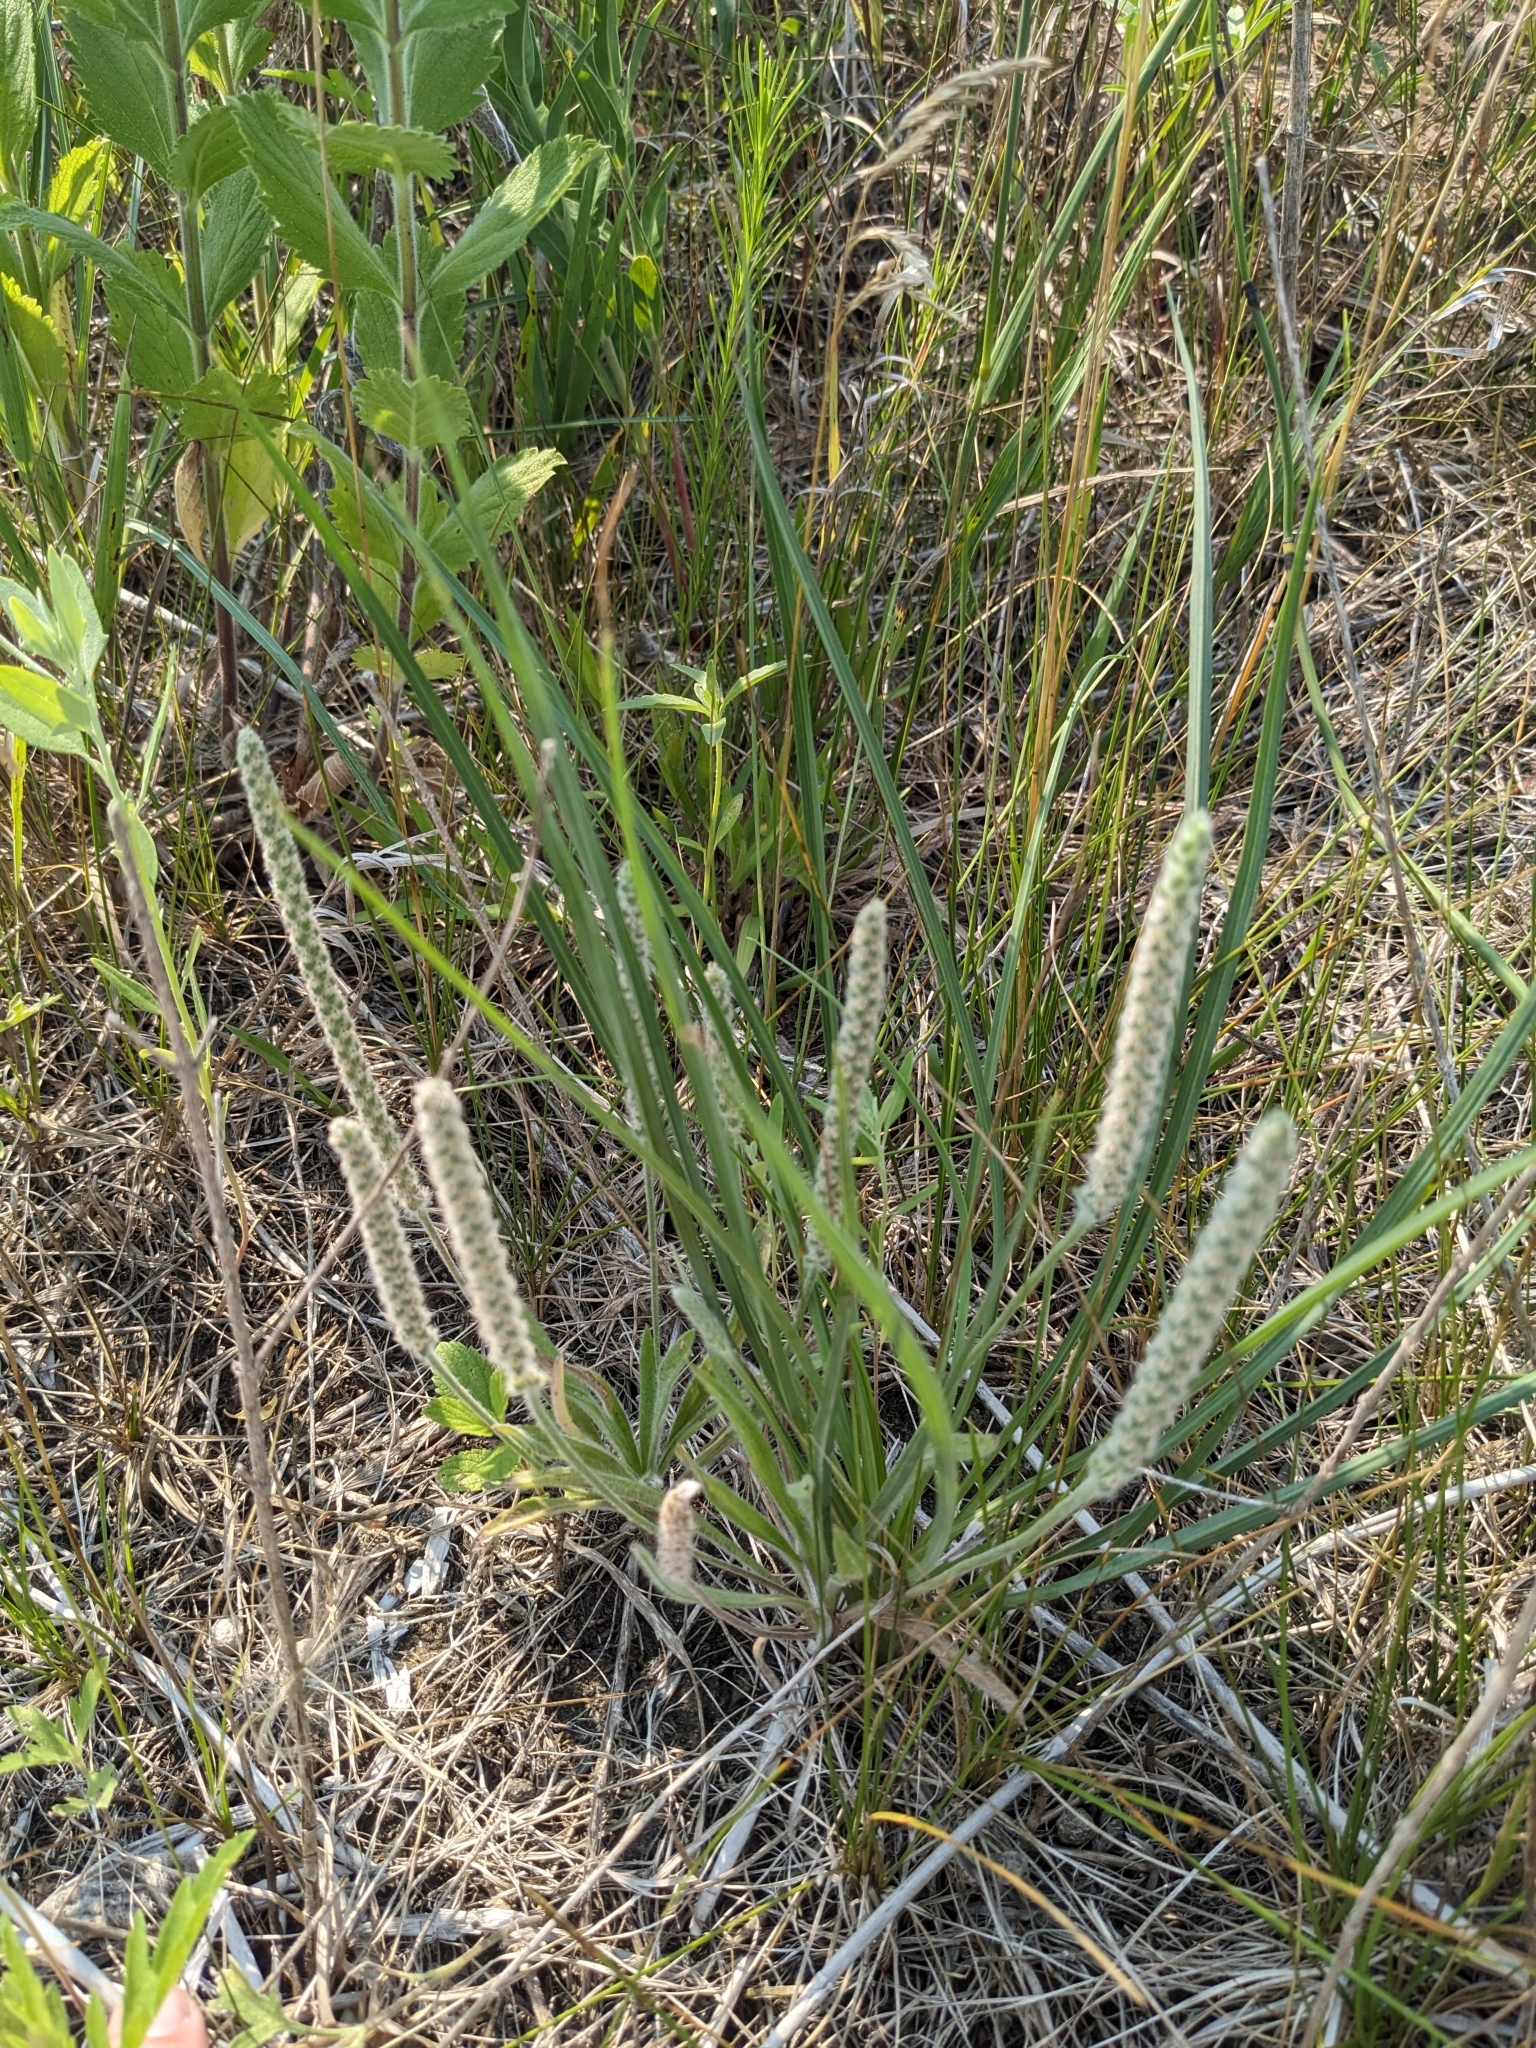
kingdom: Plantae
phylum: Tracheophyta
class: Magnoliopsida
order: Lamiales
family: Plantaginaceae
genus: Plantago
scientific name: Plantago patagonica
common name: Patagonia indian-wheat
